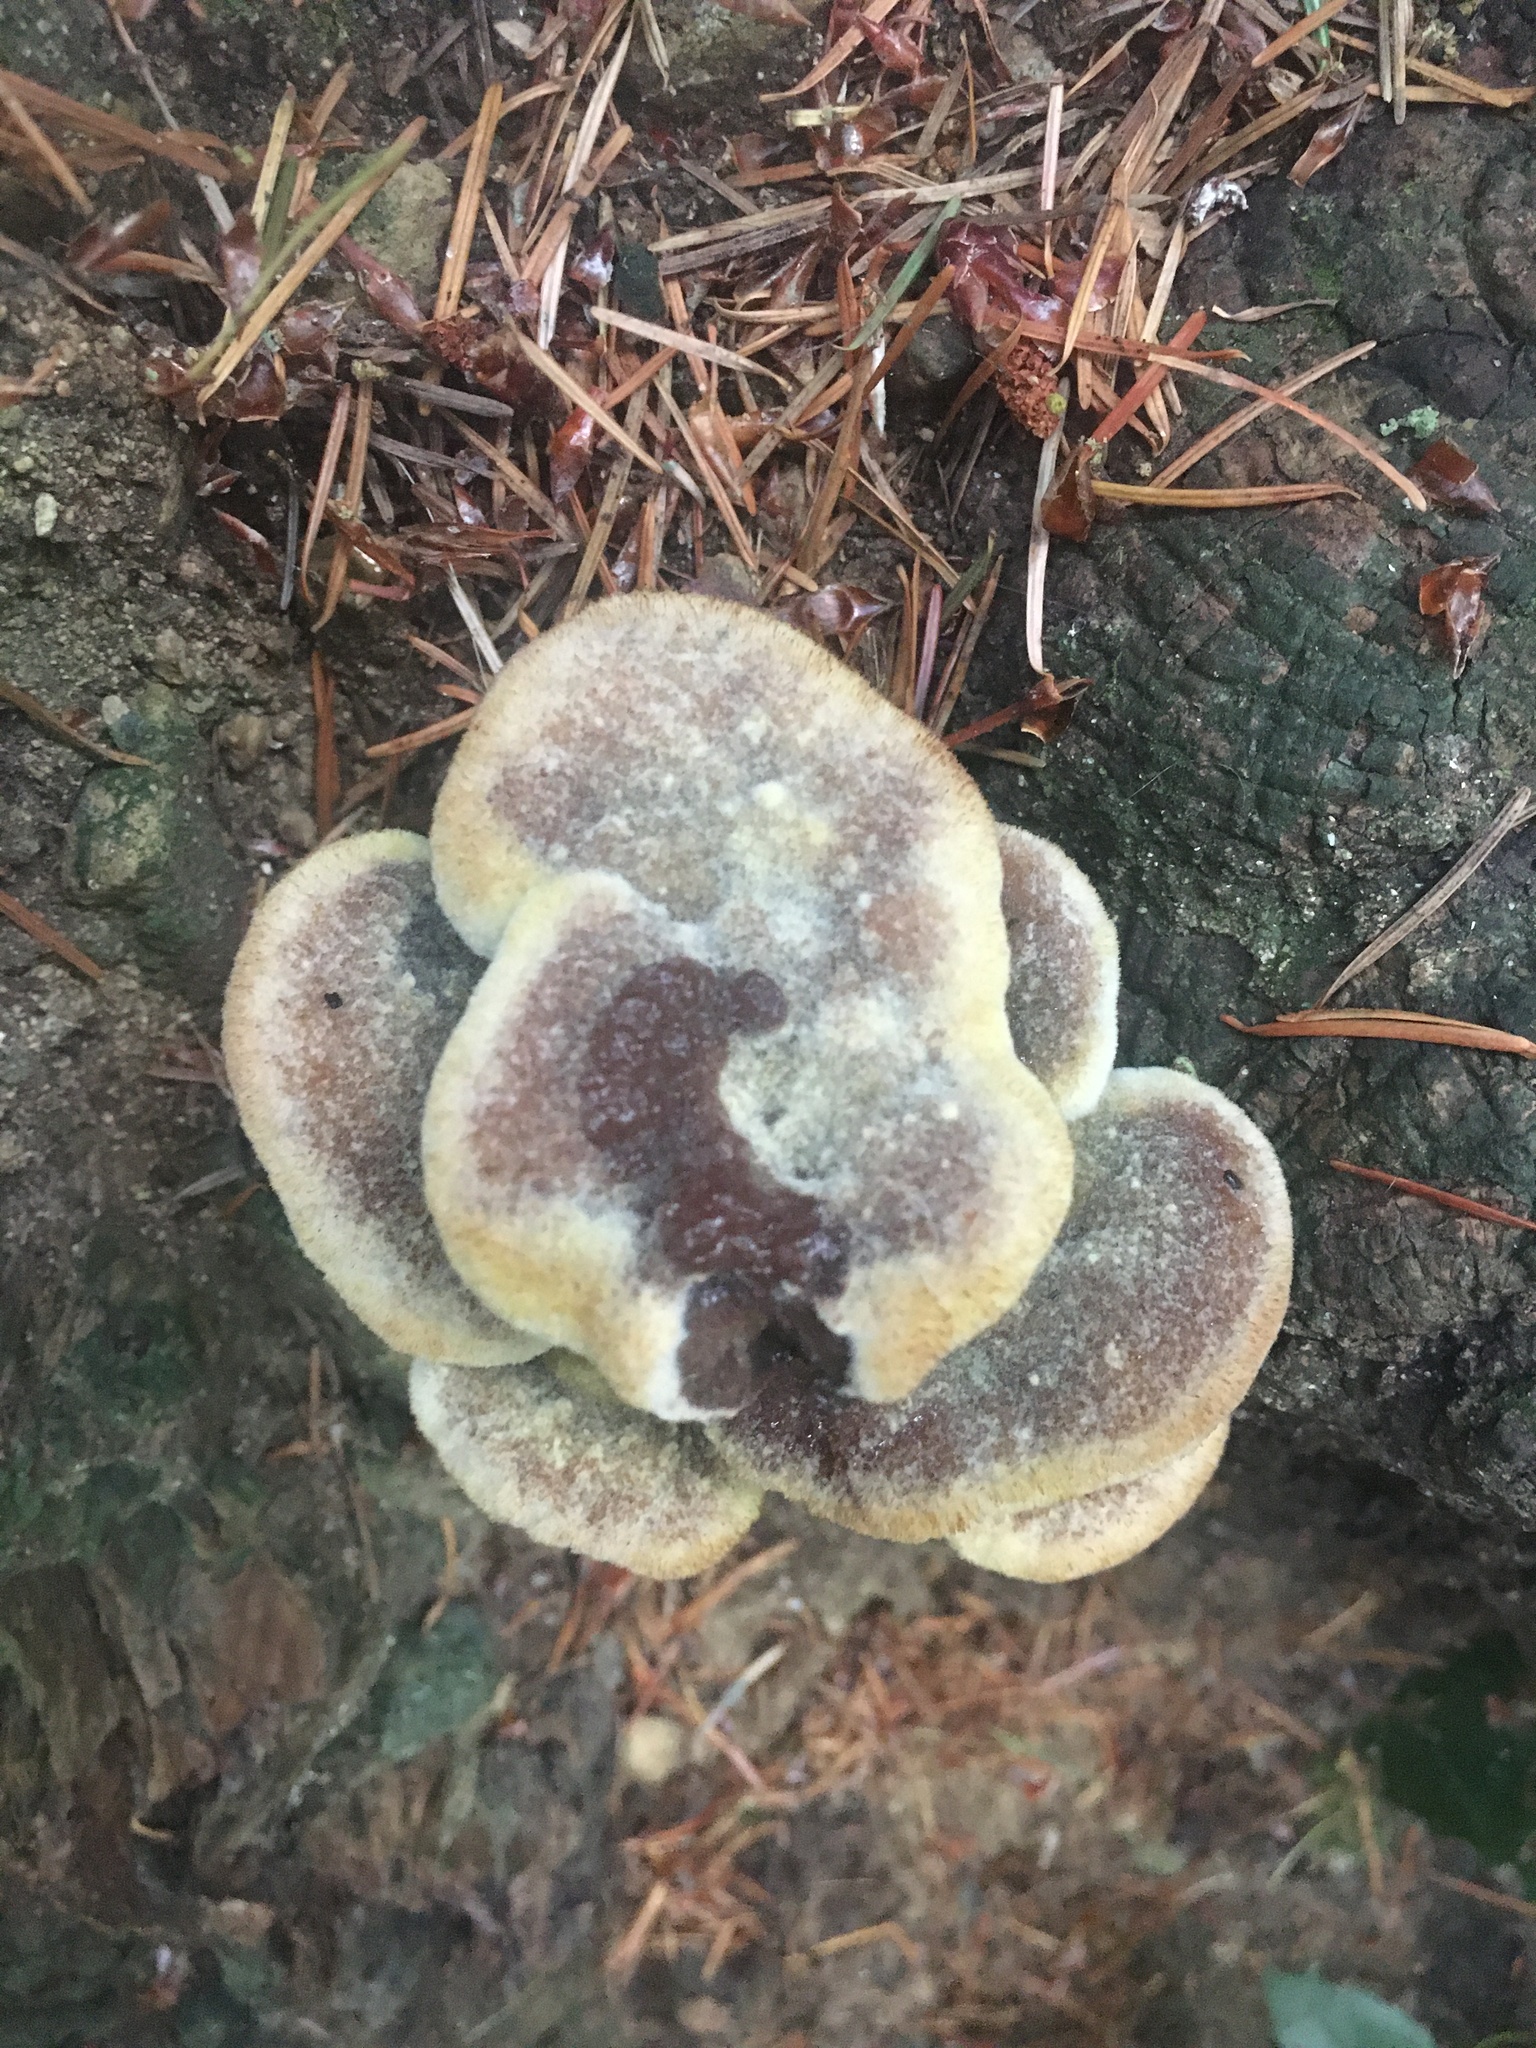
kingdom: Fungi
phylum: Basidiomycota
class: Agaricomycetes
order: Polyporales
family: Laetiporaceae
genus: Phaeolus
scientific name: Phaeolus schweinitzii
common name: Dyer's mazegill
